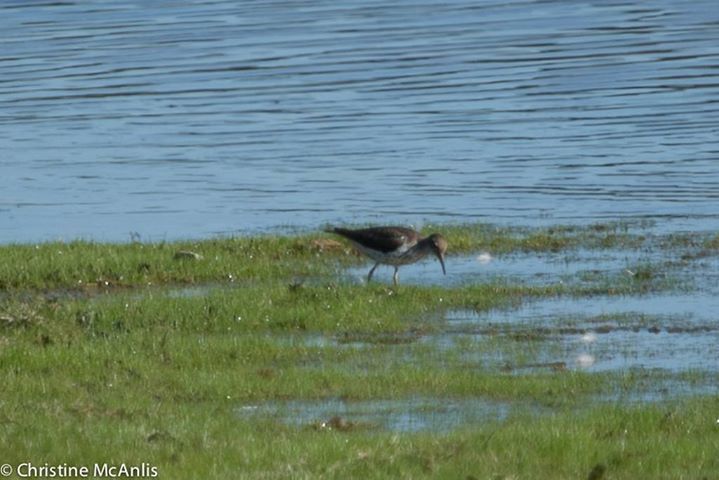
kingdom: Animalia
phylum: Chordata
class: Aves
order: Charadriiformes
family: Scolopacidae
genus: Actitis
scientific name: Actitis macularius
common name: Spotted sandpiper
